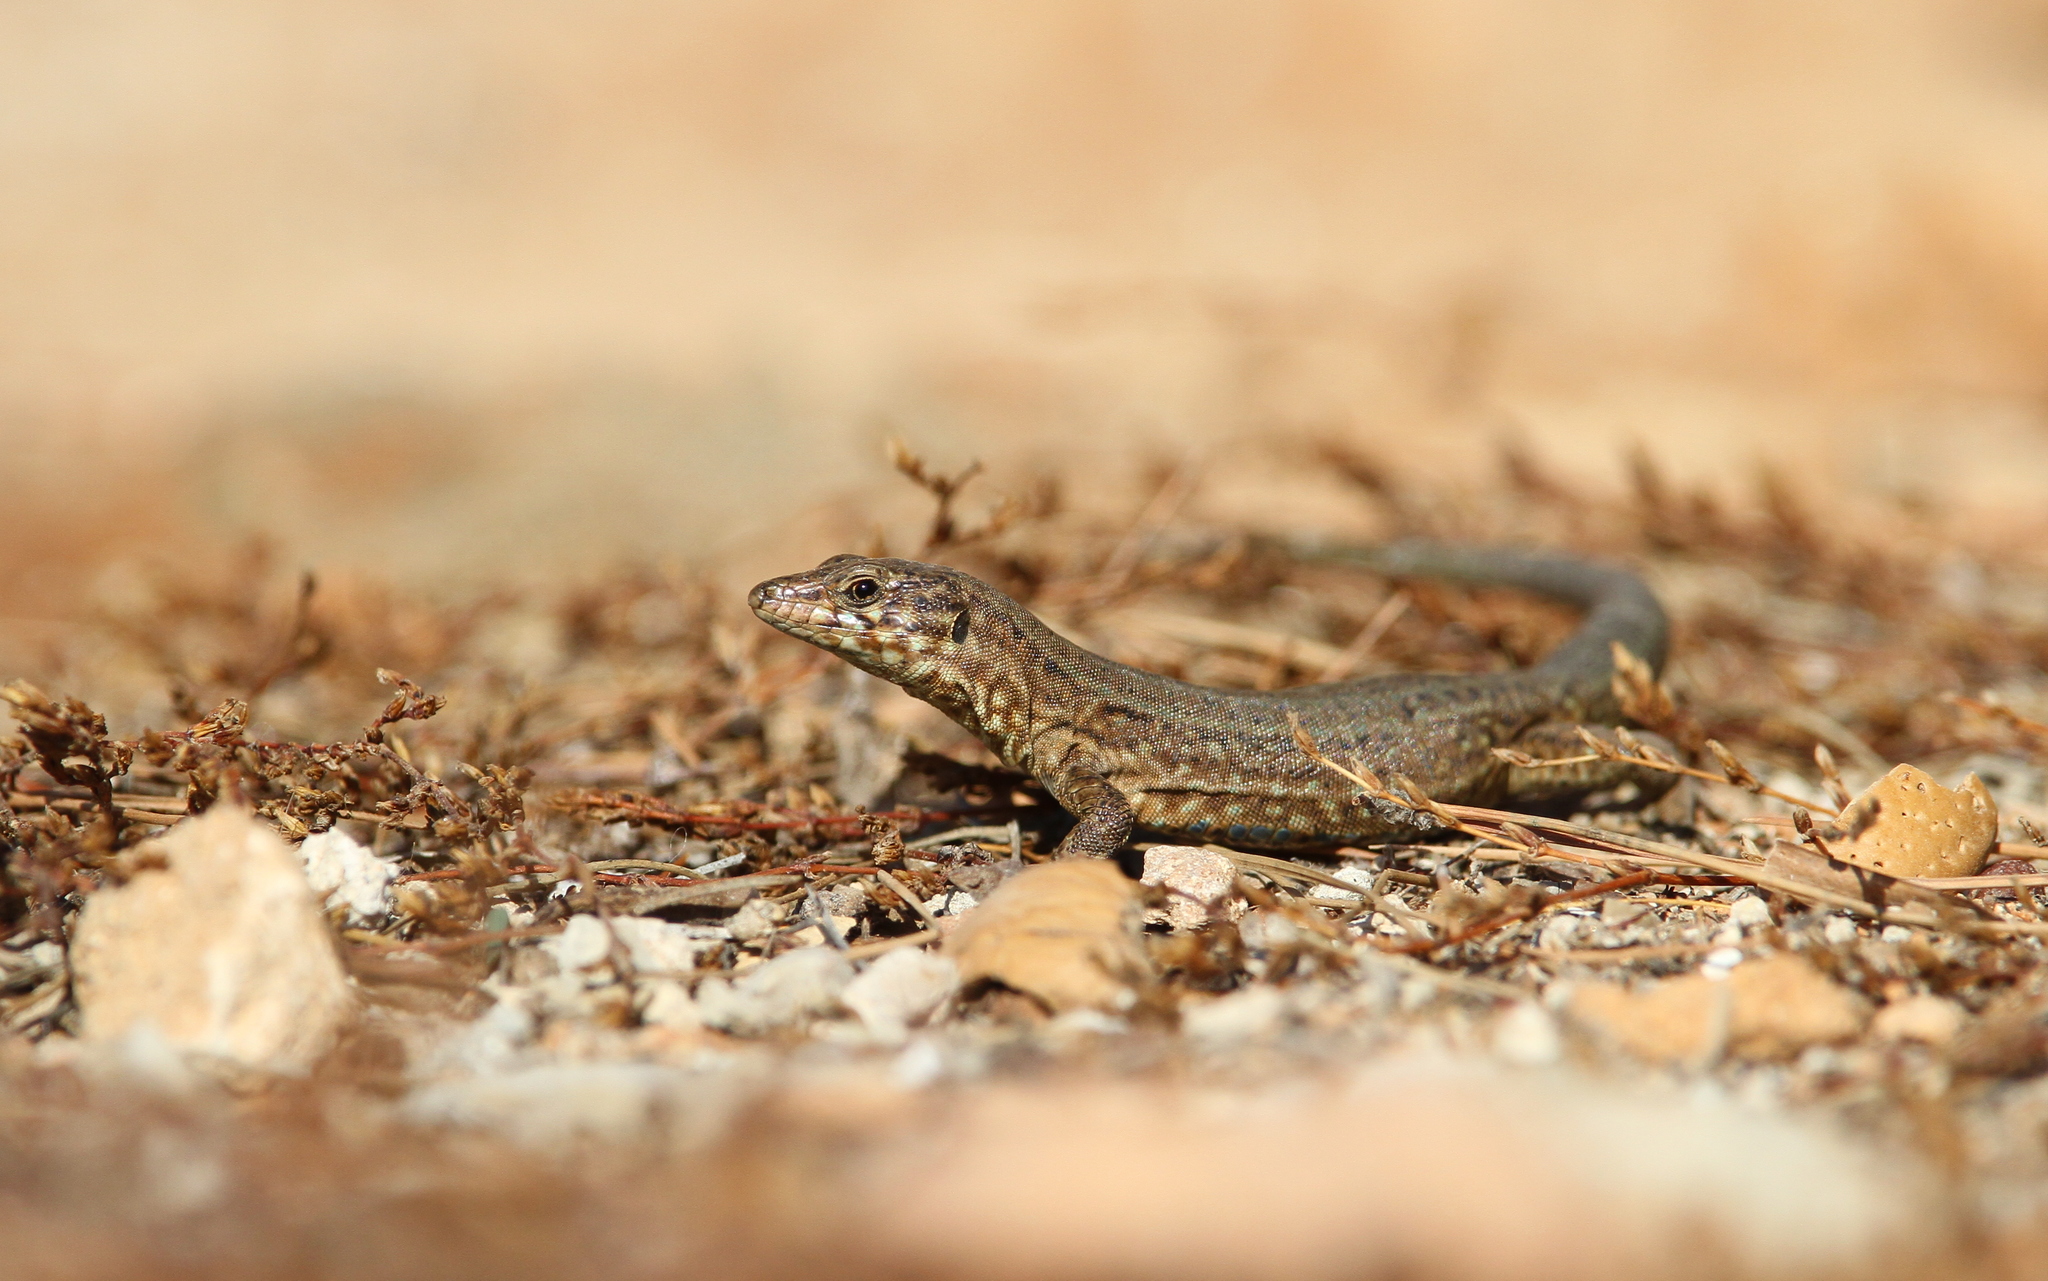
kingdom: Animalia
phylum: Chordata
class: Squamata
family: Lacertidae
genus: Podarcis
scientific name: Podarcis lilfordi
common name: Belearic lizard
